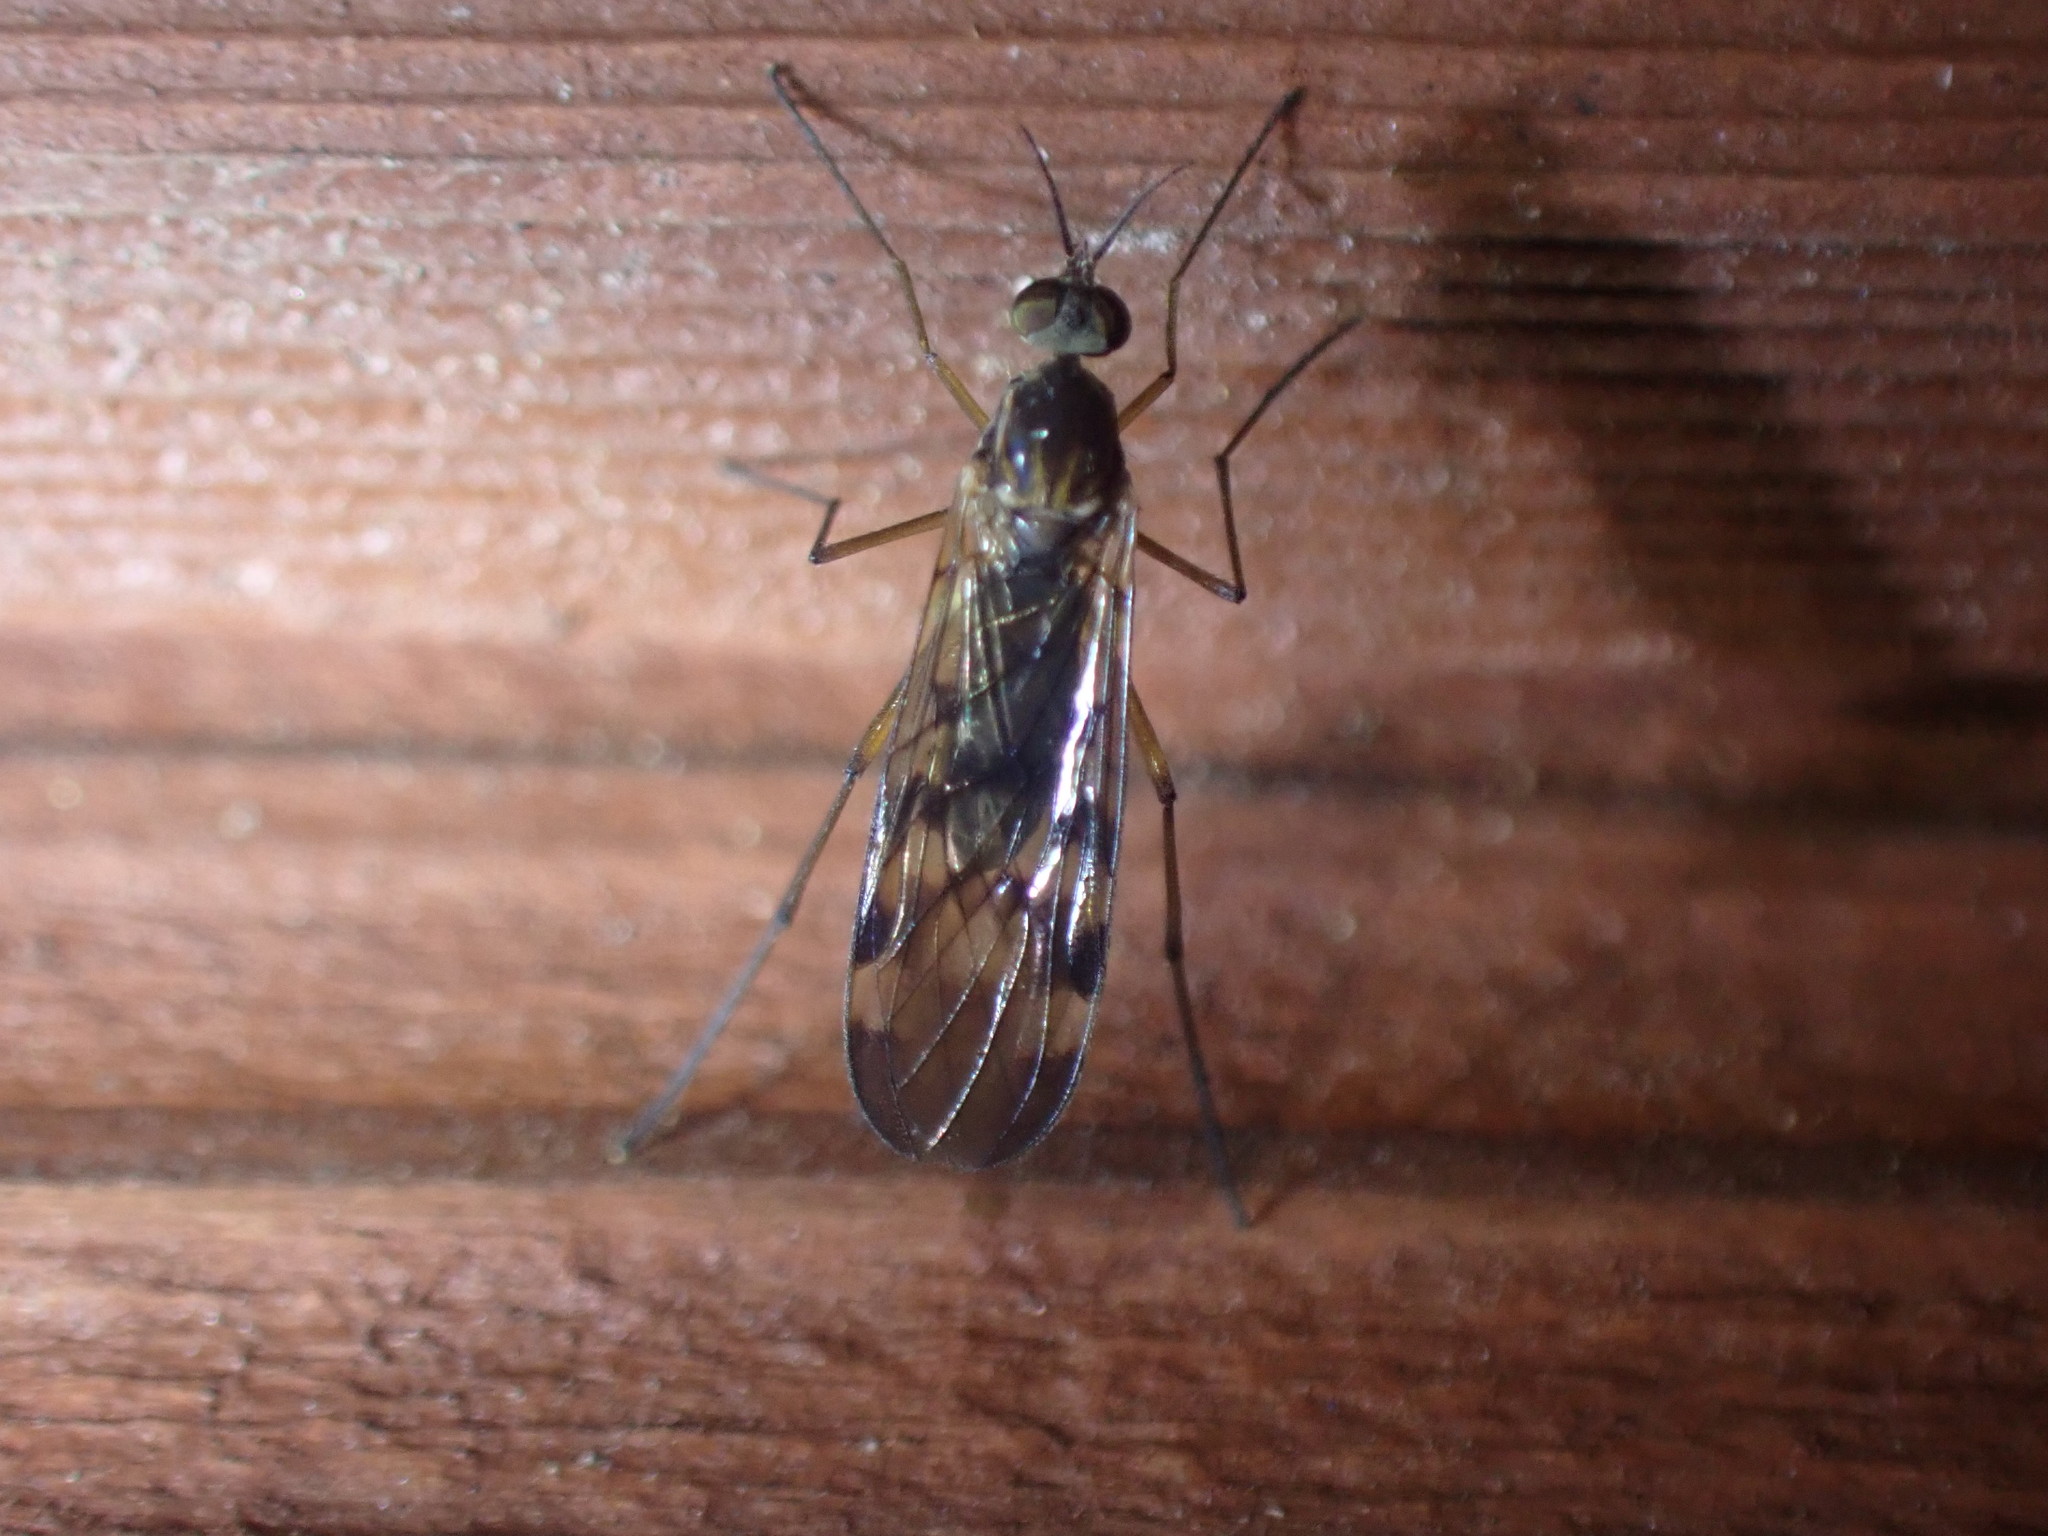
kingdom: Animalia
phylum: Arthropoda
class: Insecta
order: Diptera
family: Anisopodidae
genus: Sylvicola
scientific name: Sylvicola undulatus
